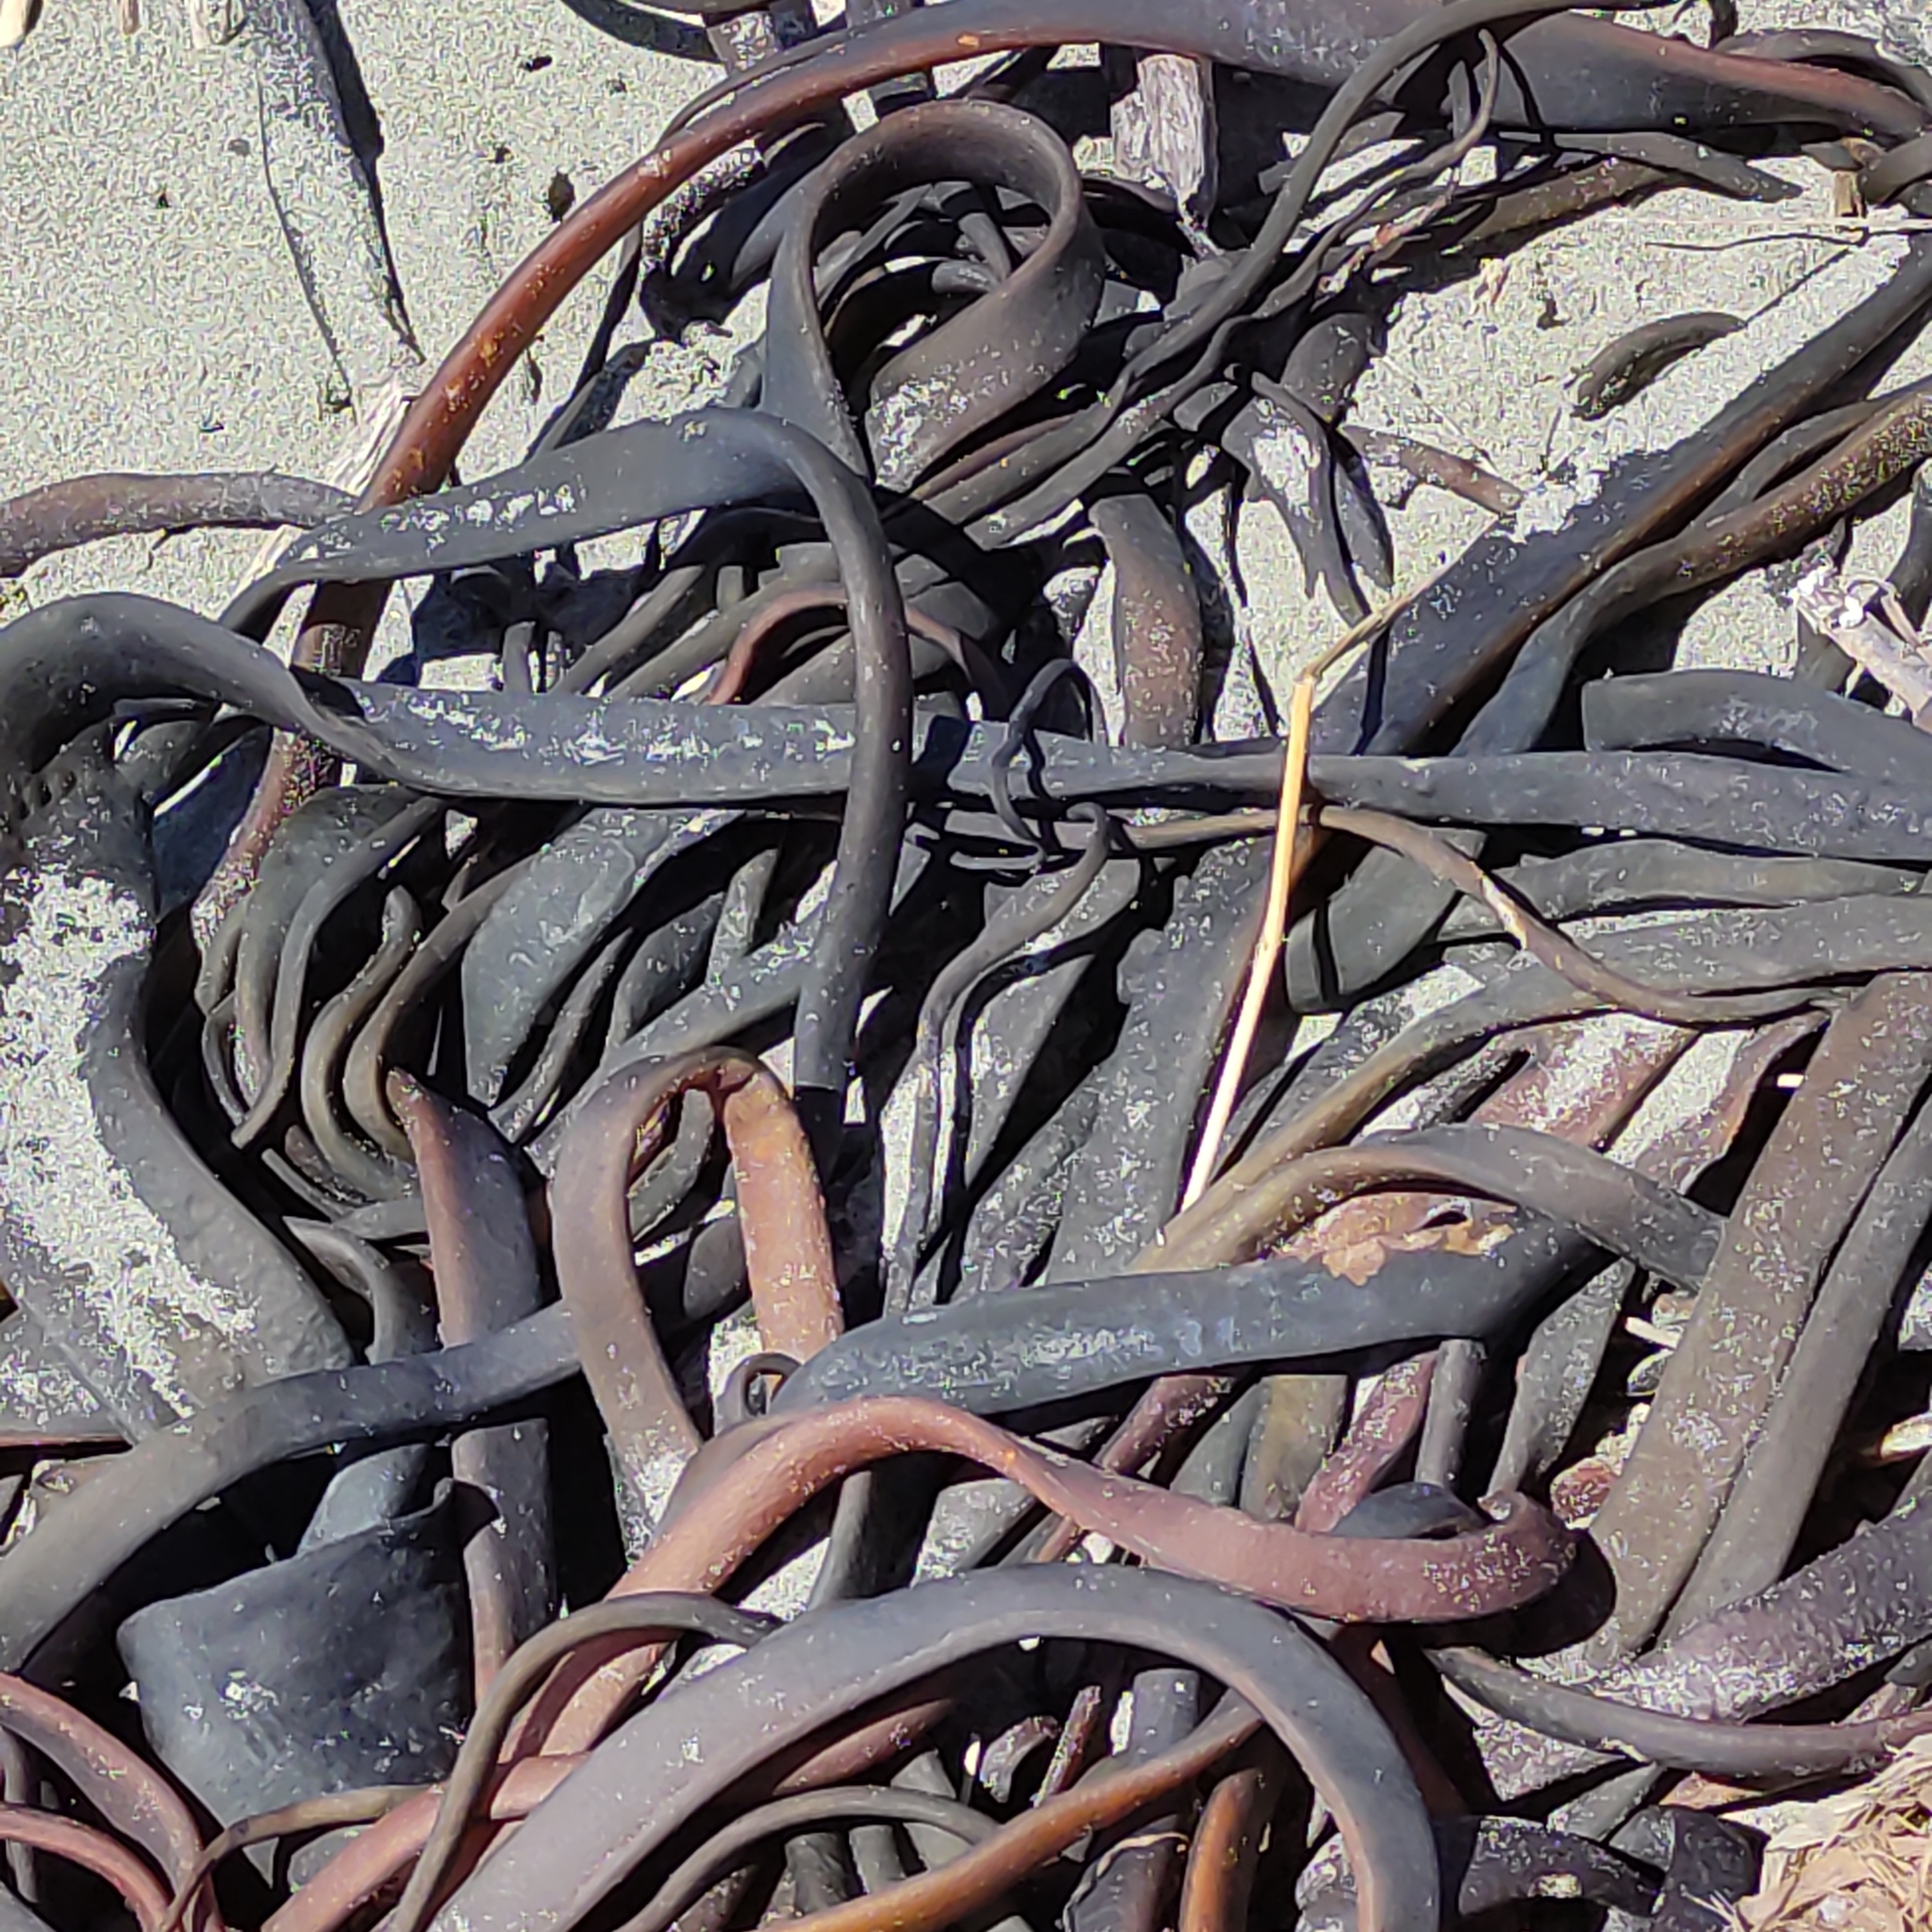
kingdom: Chromista
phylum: Ochrophyta
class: Phaeophyceae
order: Fucales
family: Durvillaeaceae
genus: Durvillaea
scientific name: Durvillaea antarctica
